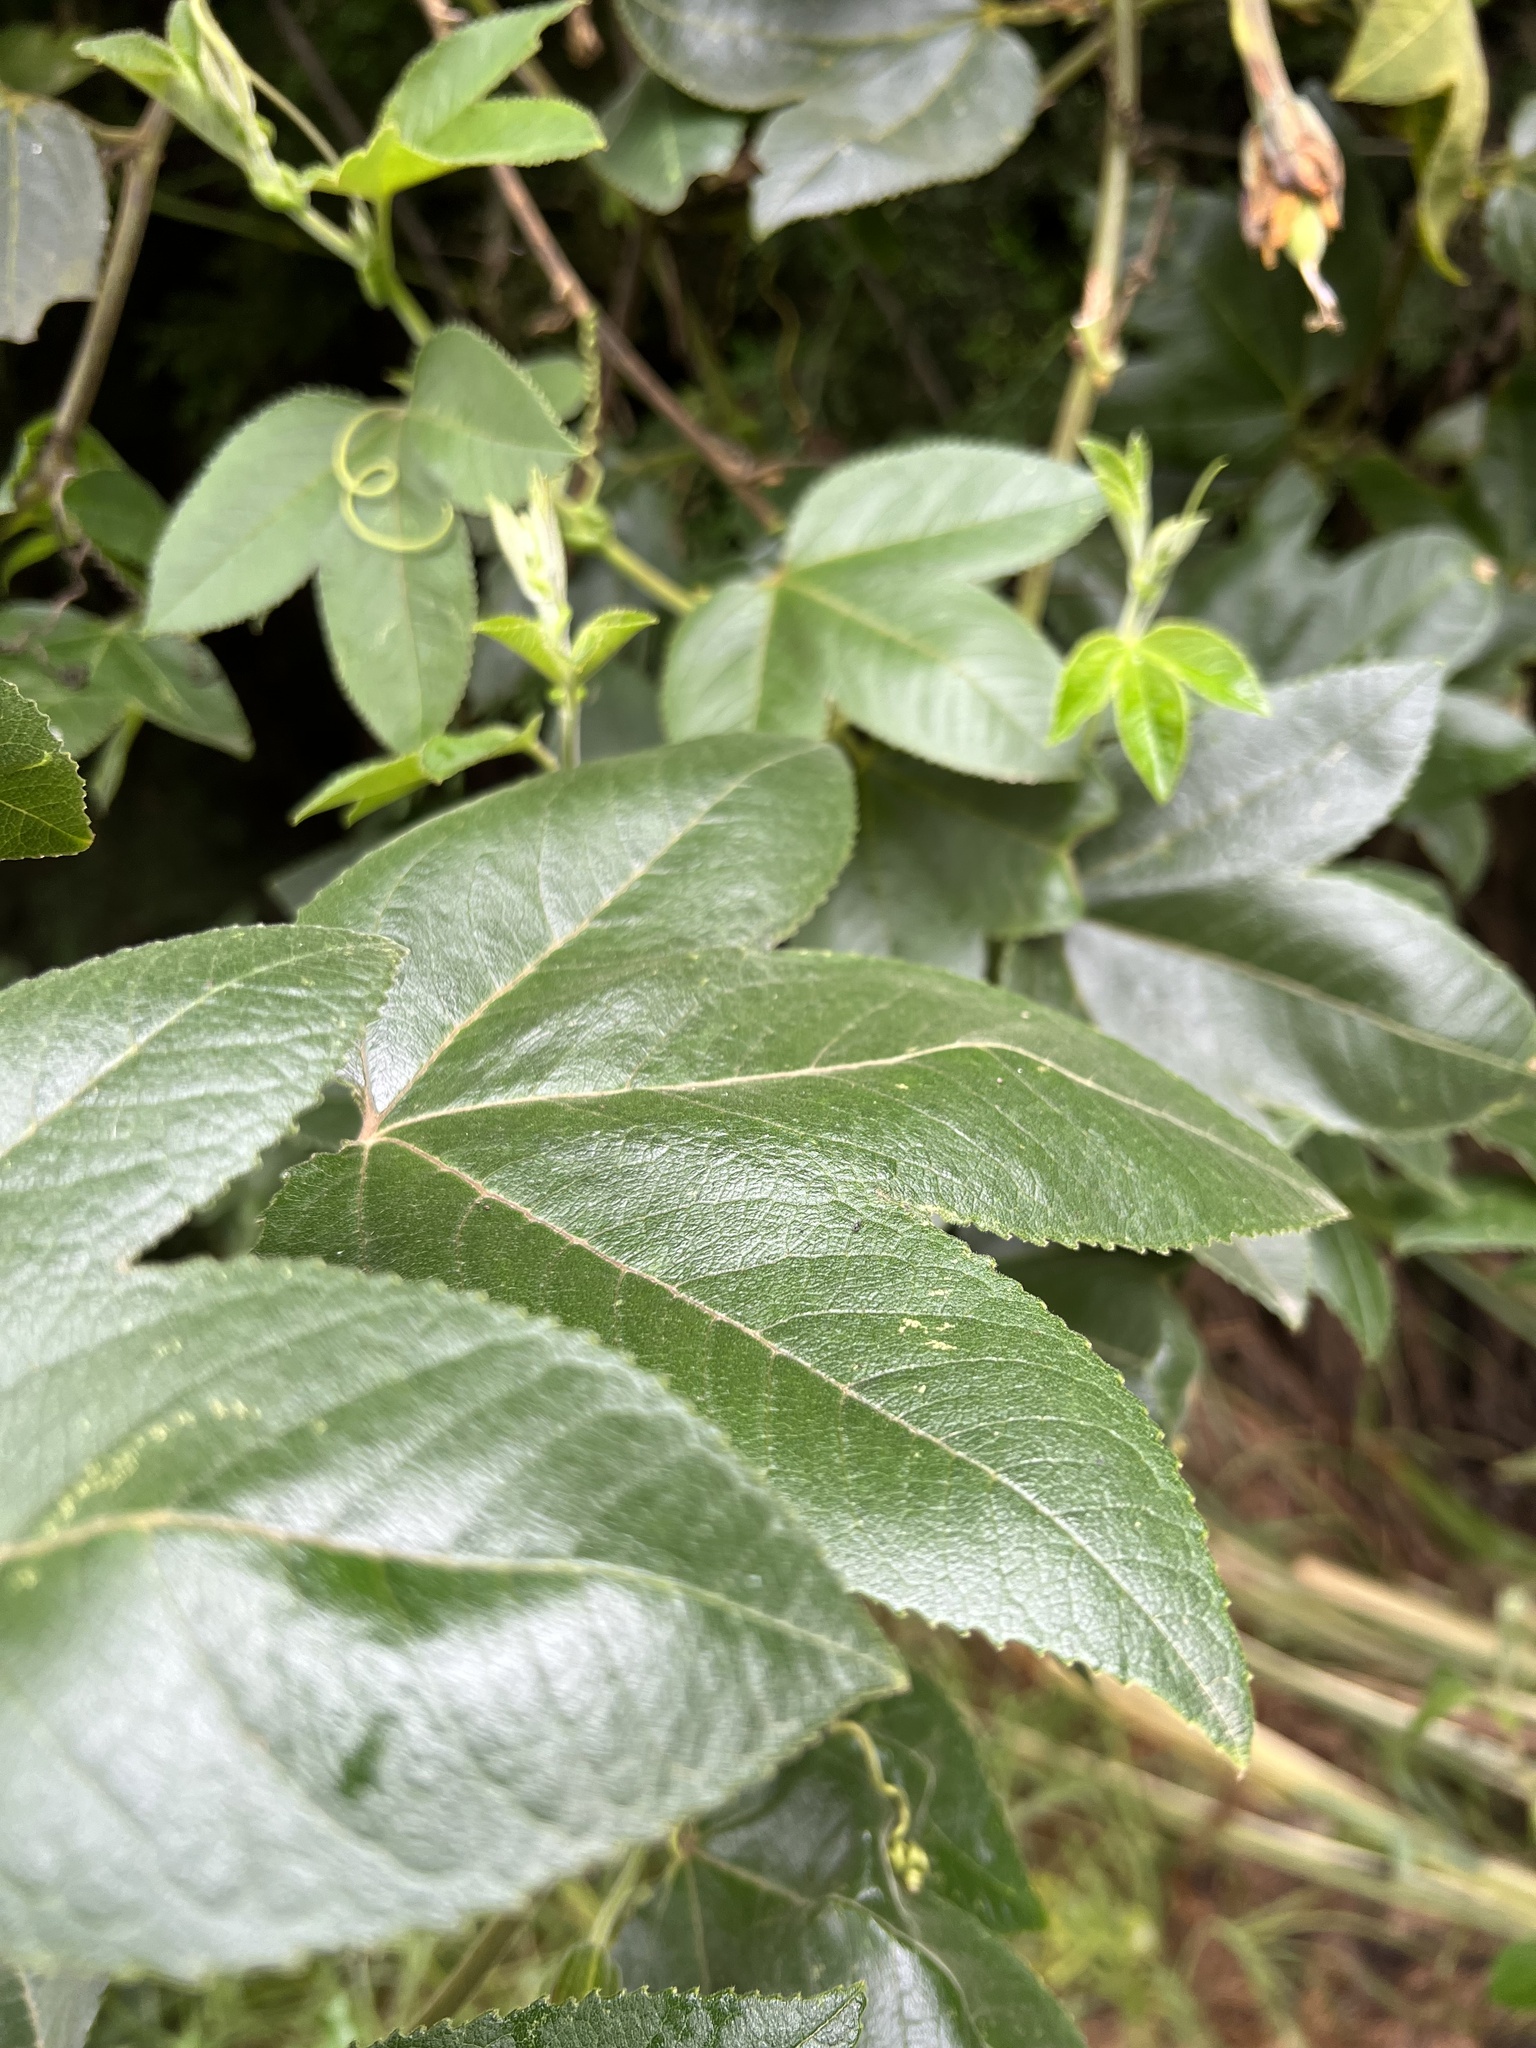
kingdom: Plantae
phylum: Tracheophyta
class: Magnoliopsida
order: Malpighiales
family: Passifloraceae
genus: Passiflora
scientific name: Passiflora tripartita
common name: Banana poka
